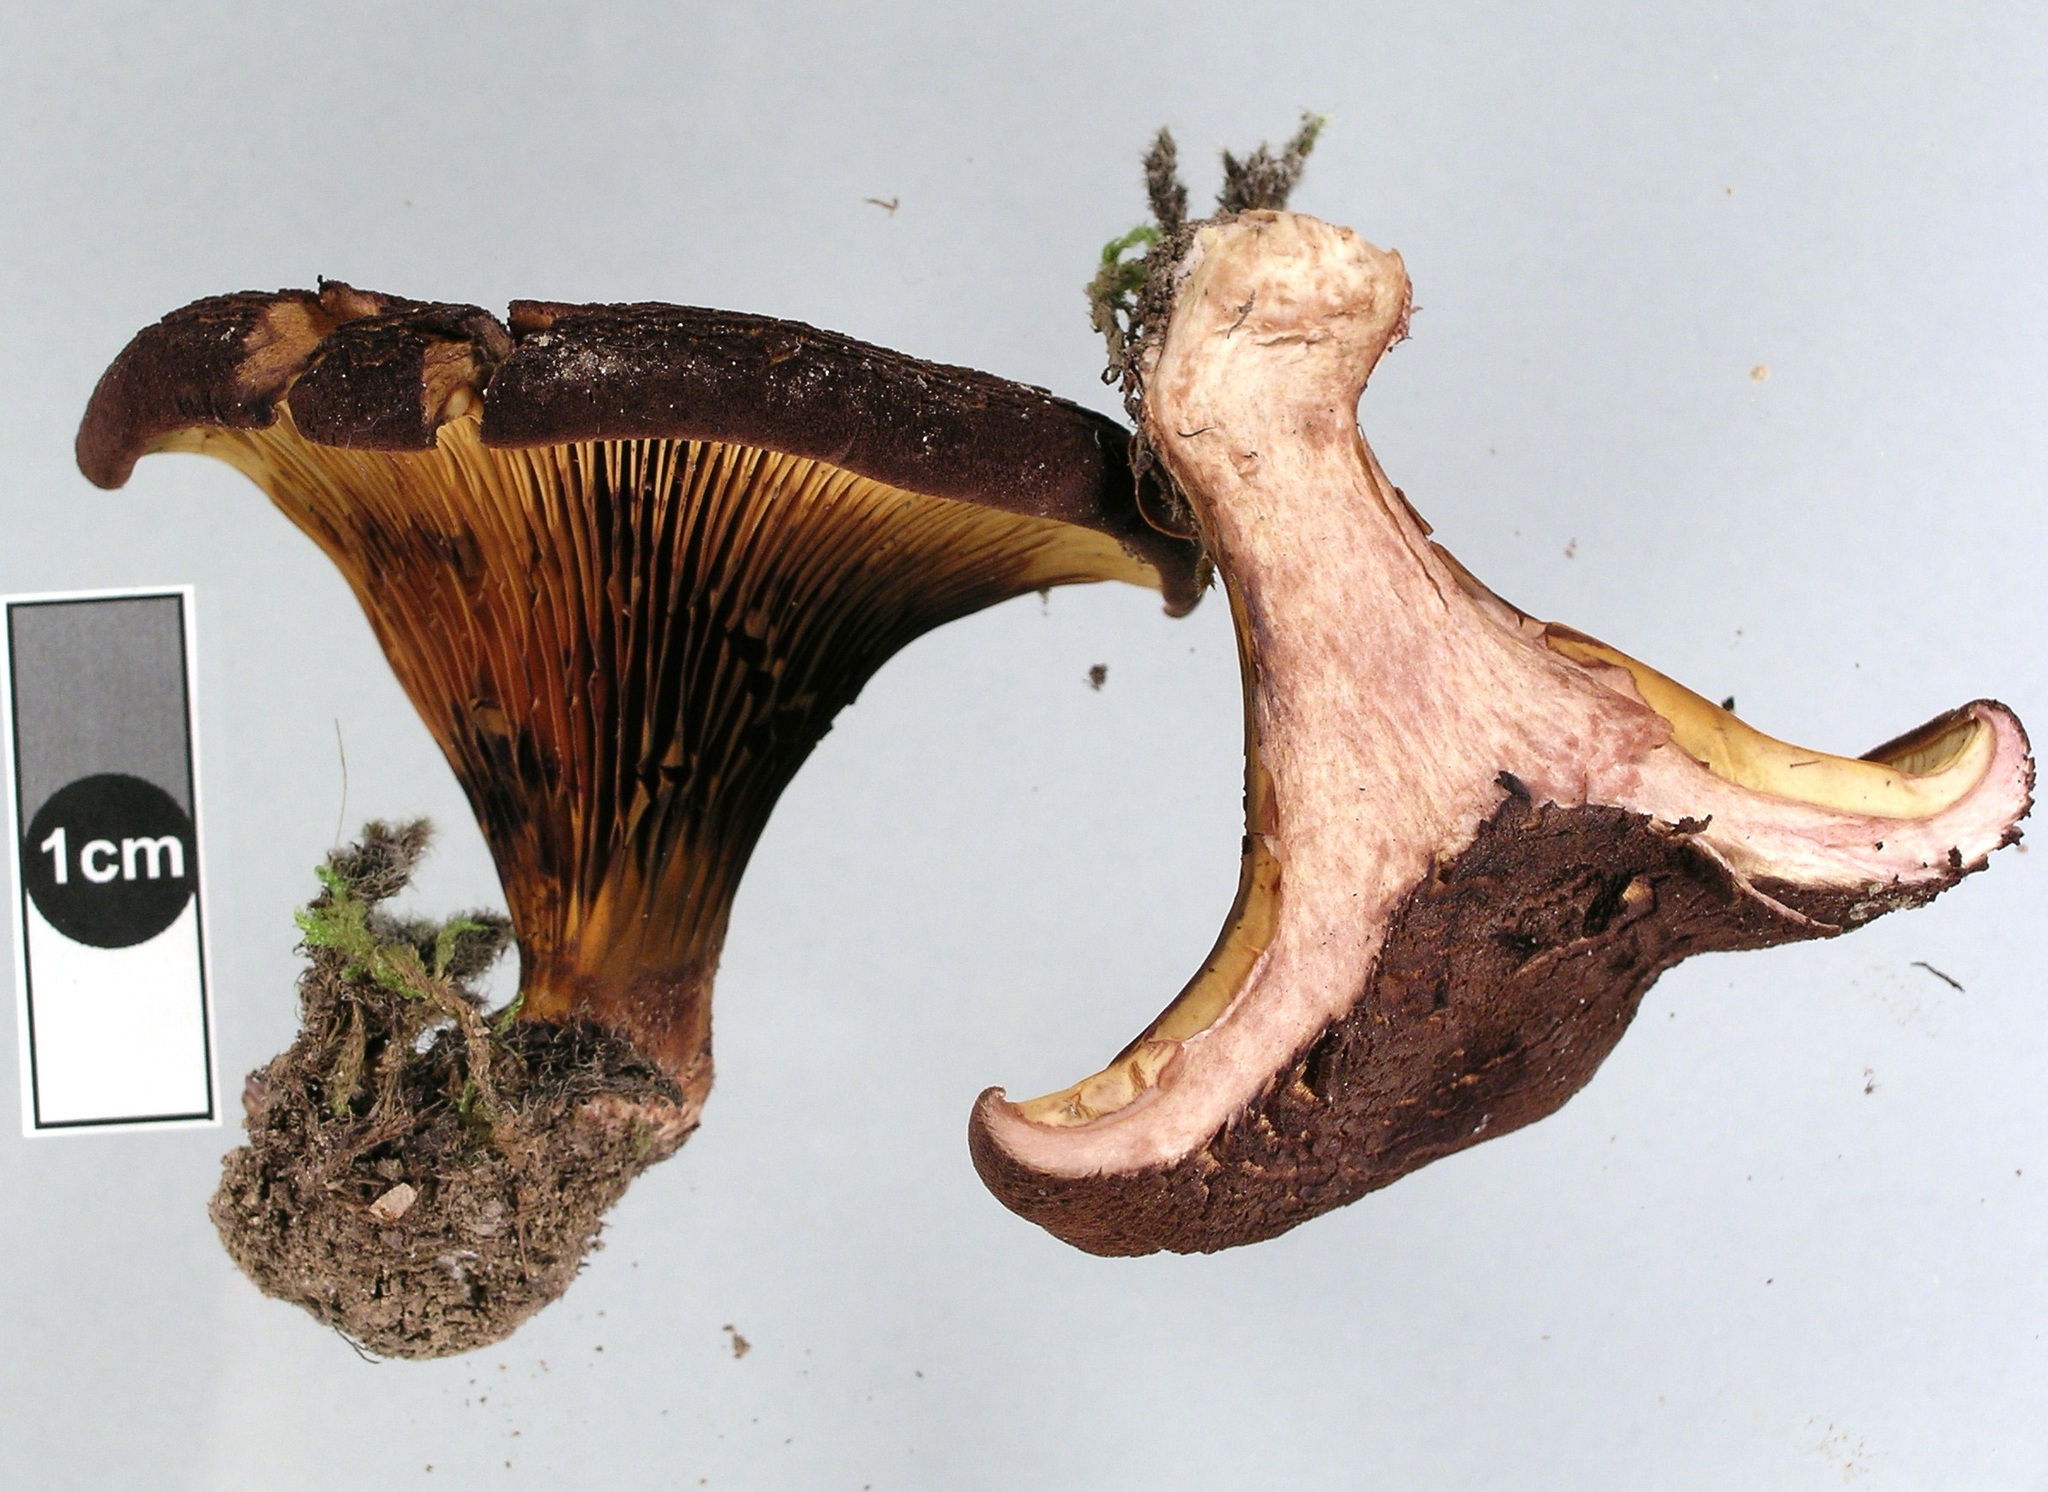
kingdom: Fungi
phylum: Basidiomycota
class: Agaricomycetes
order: Boletales
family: Serpulaceae
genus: Austropaxillus
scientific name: Austropaxillus squarrosus
